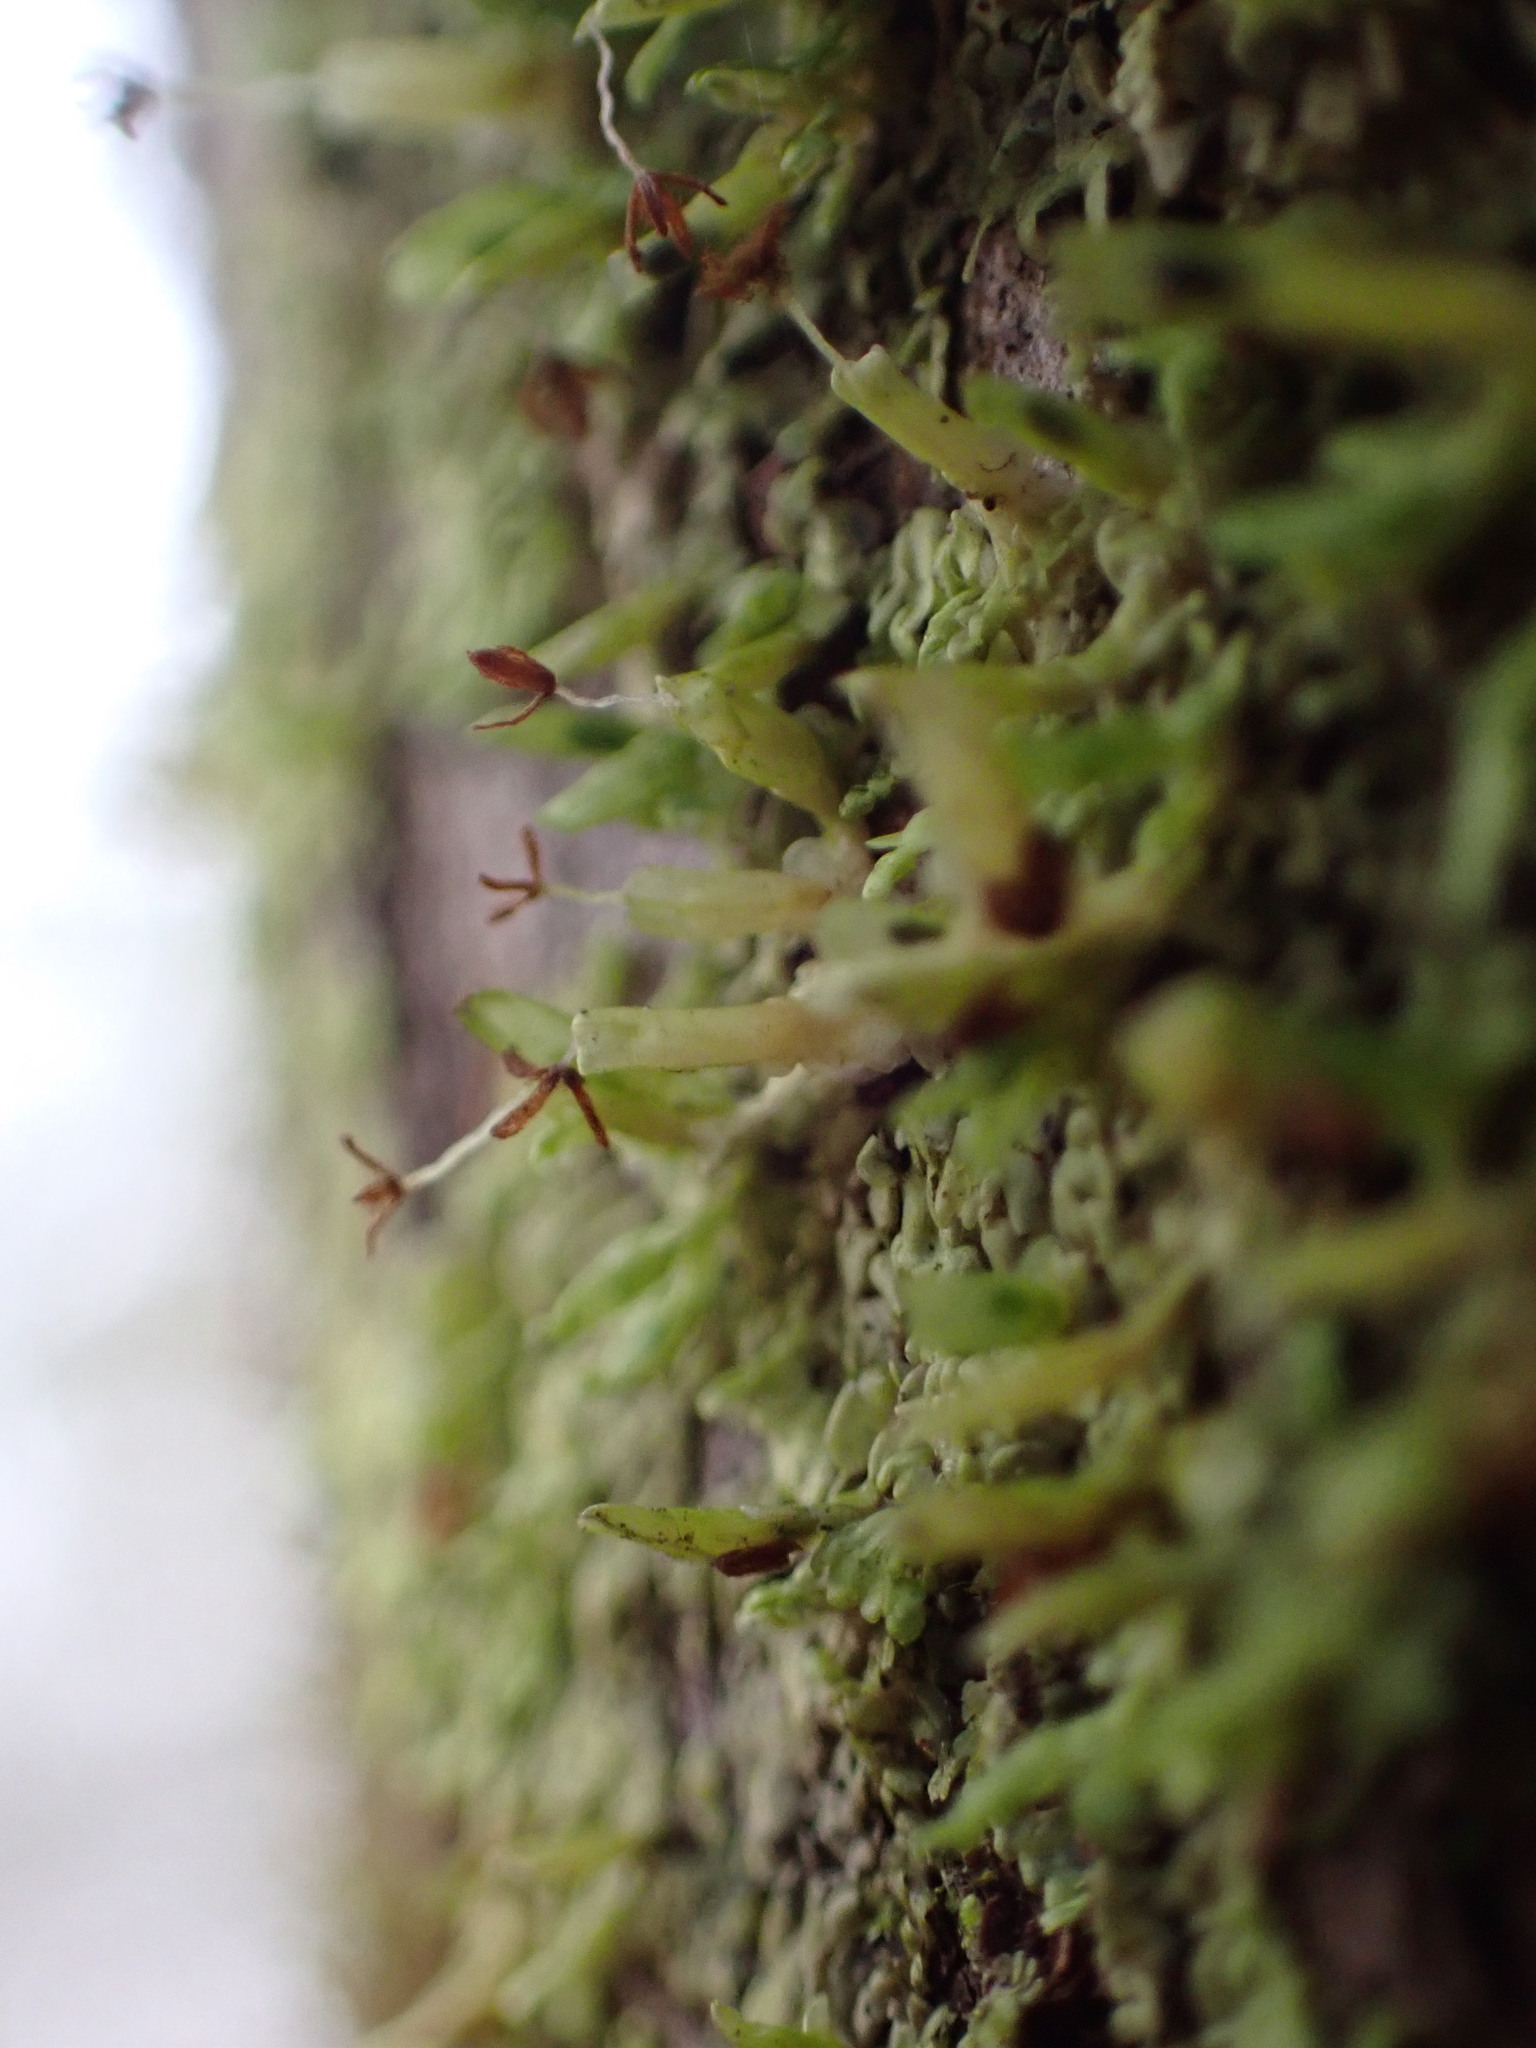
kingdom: Plantae
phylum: Marchantiophyta
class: Jungermanniopsida
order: Porellales
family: Radulaceae
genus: Radula
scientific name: Radula complanata
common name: Flat-leaved scalewort
